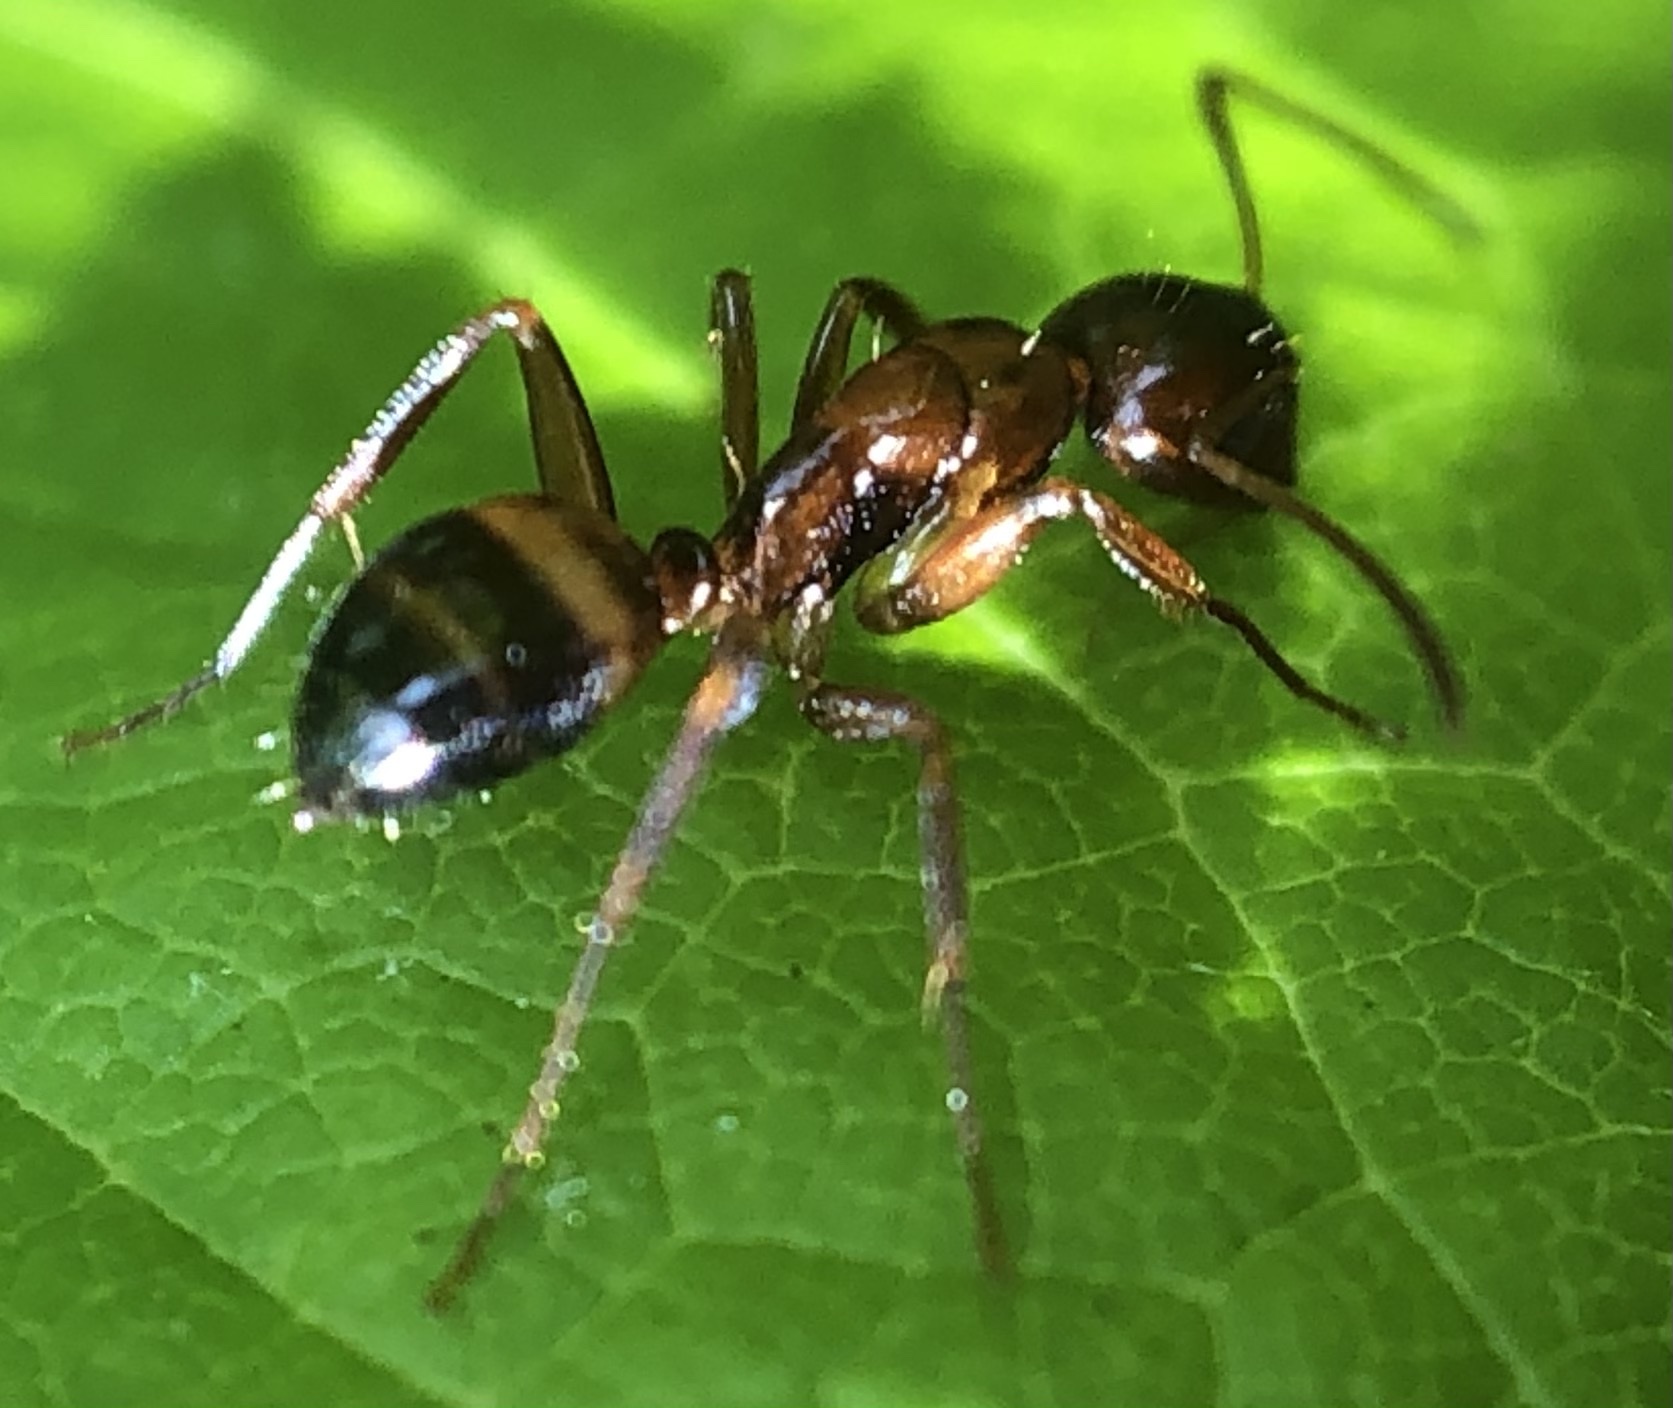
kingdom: Animalia
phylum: Arthropoda
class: Insecta
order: Hymenoptera
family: Formicidae
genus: Camponotus
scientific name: Camponotus subbarbatus
